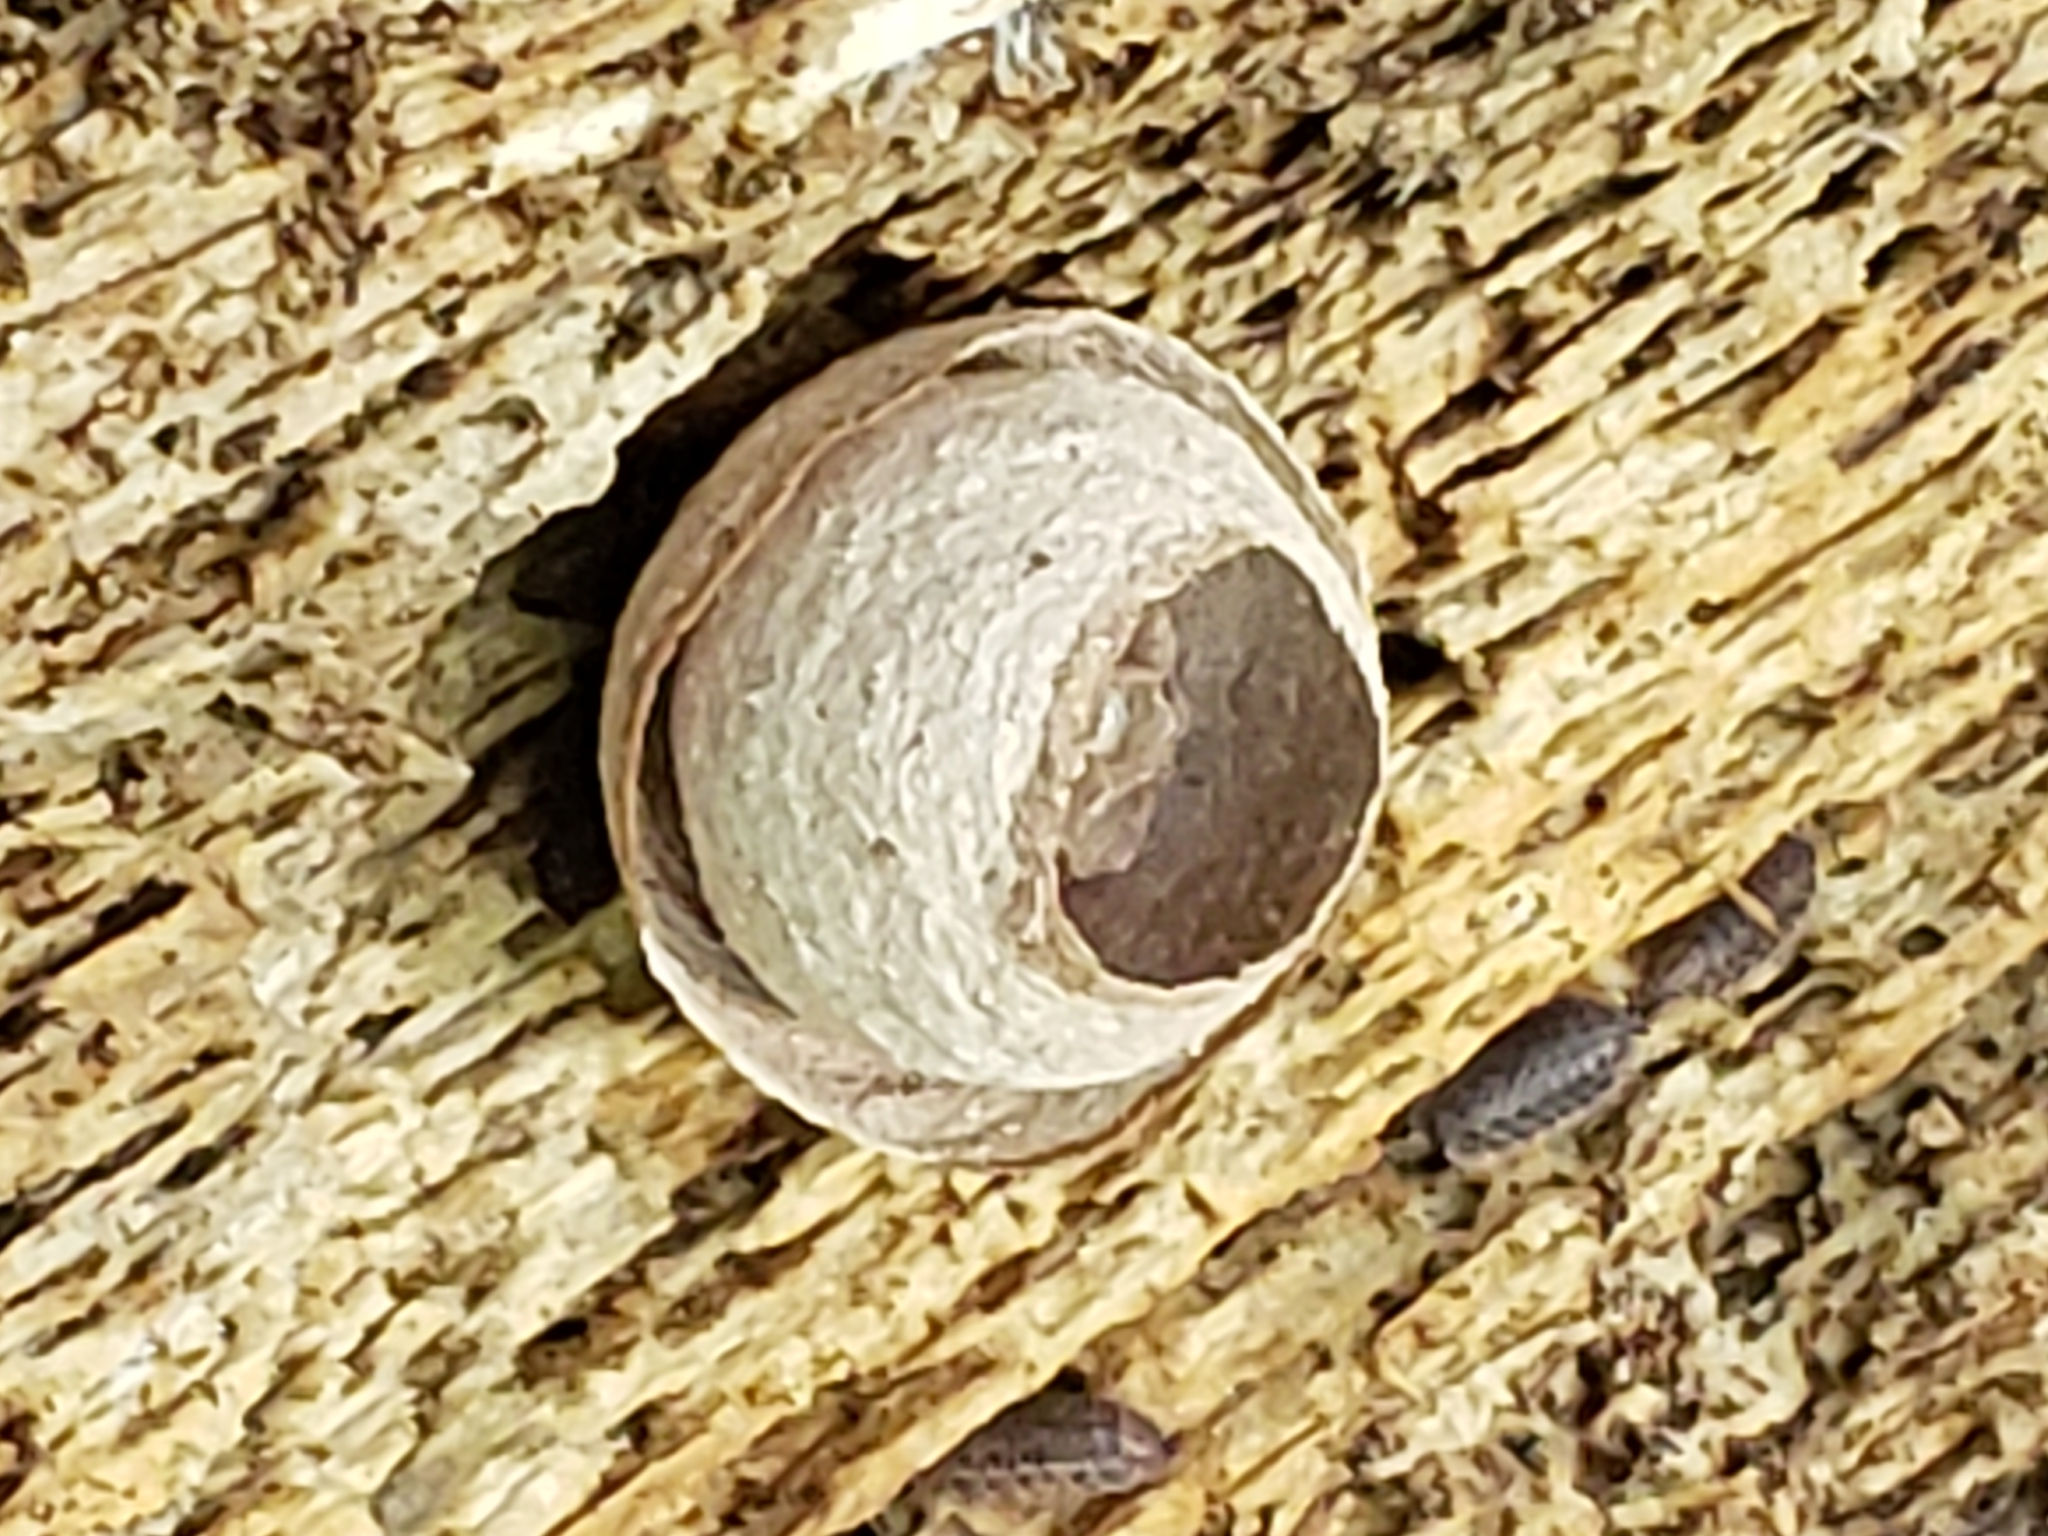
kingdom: Animalia
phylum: Arthropoda
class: Insecta
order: Hymenoptera
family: Vespidae
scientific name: Vespidae
